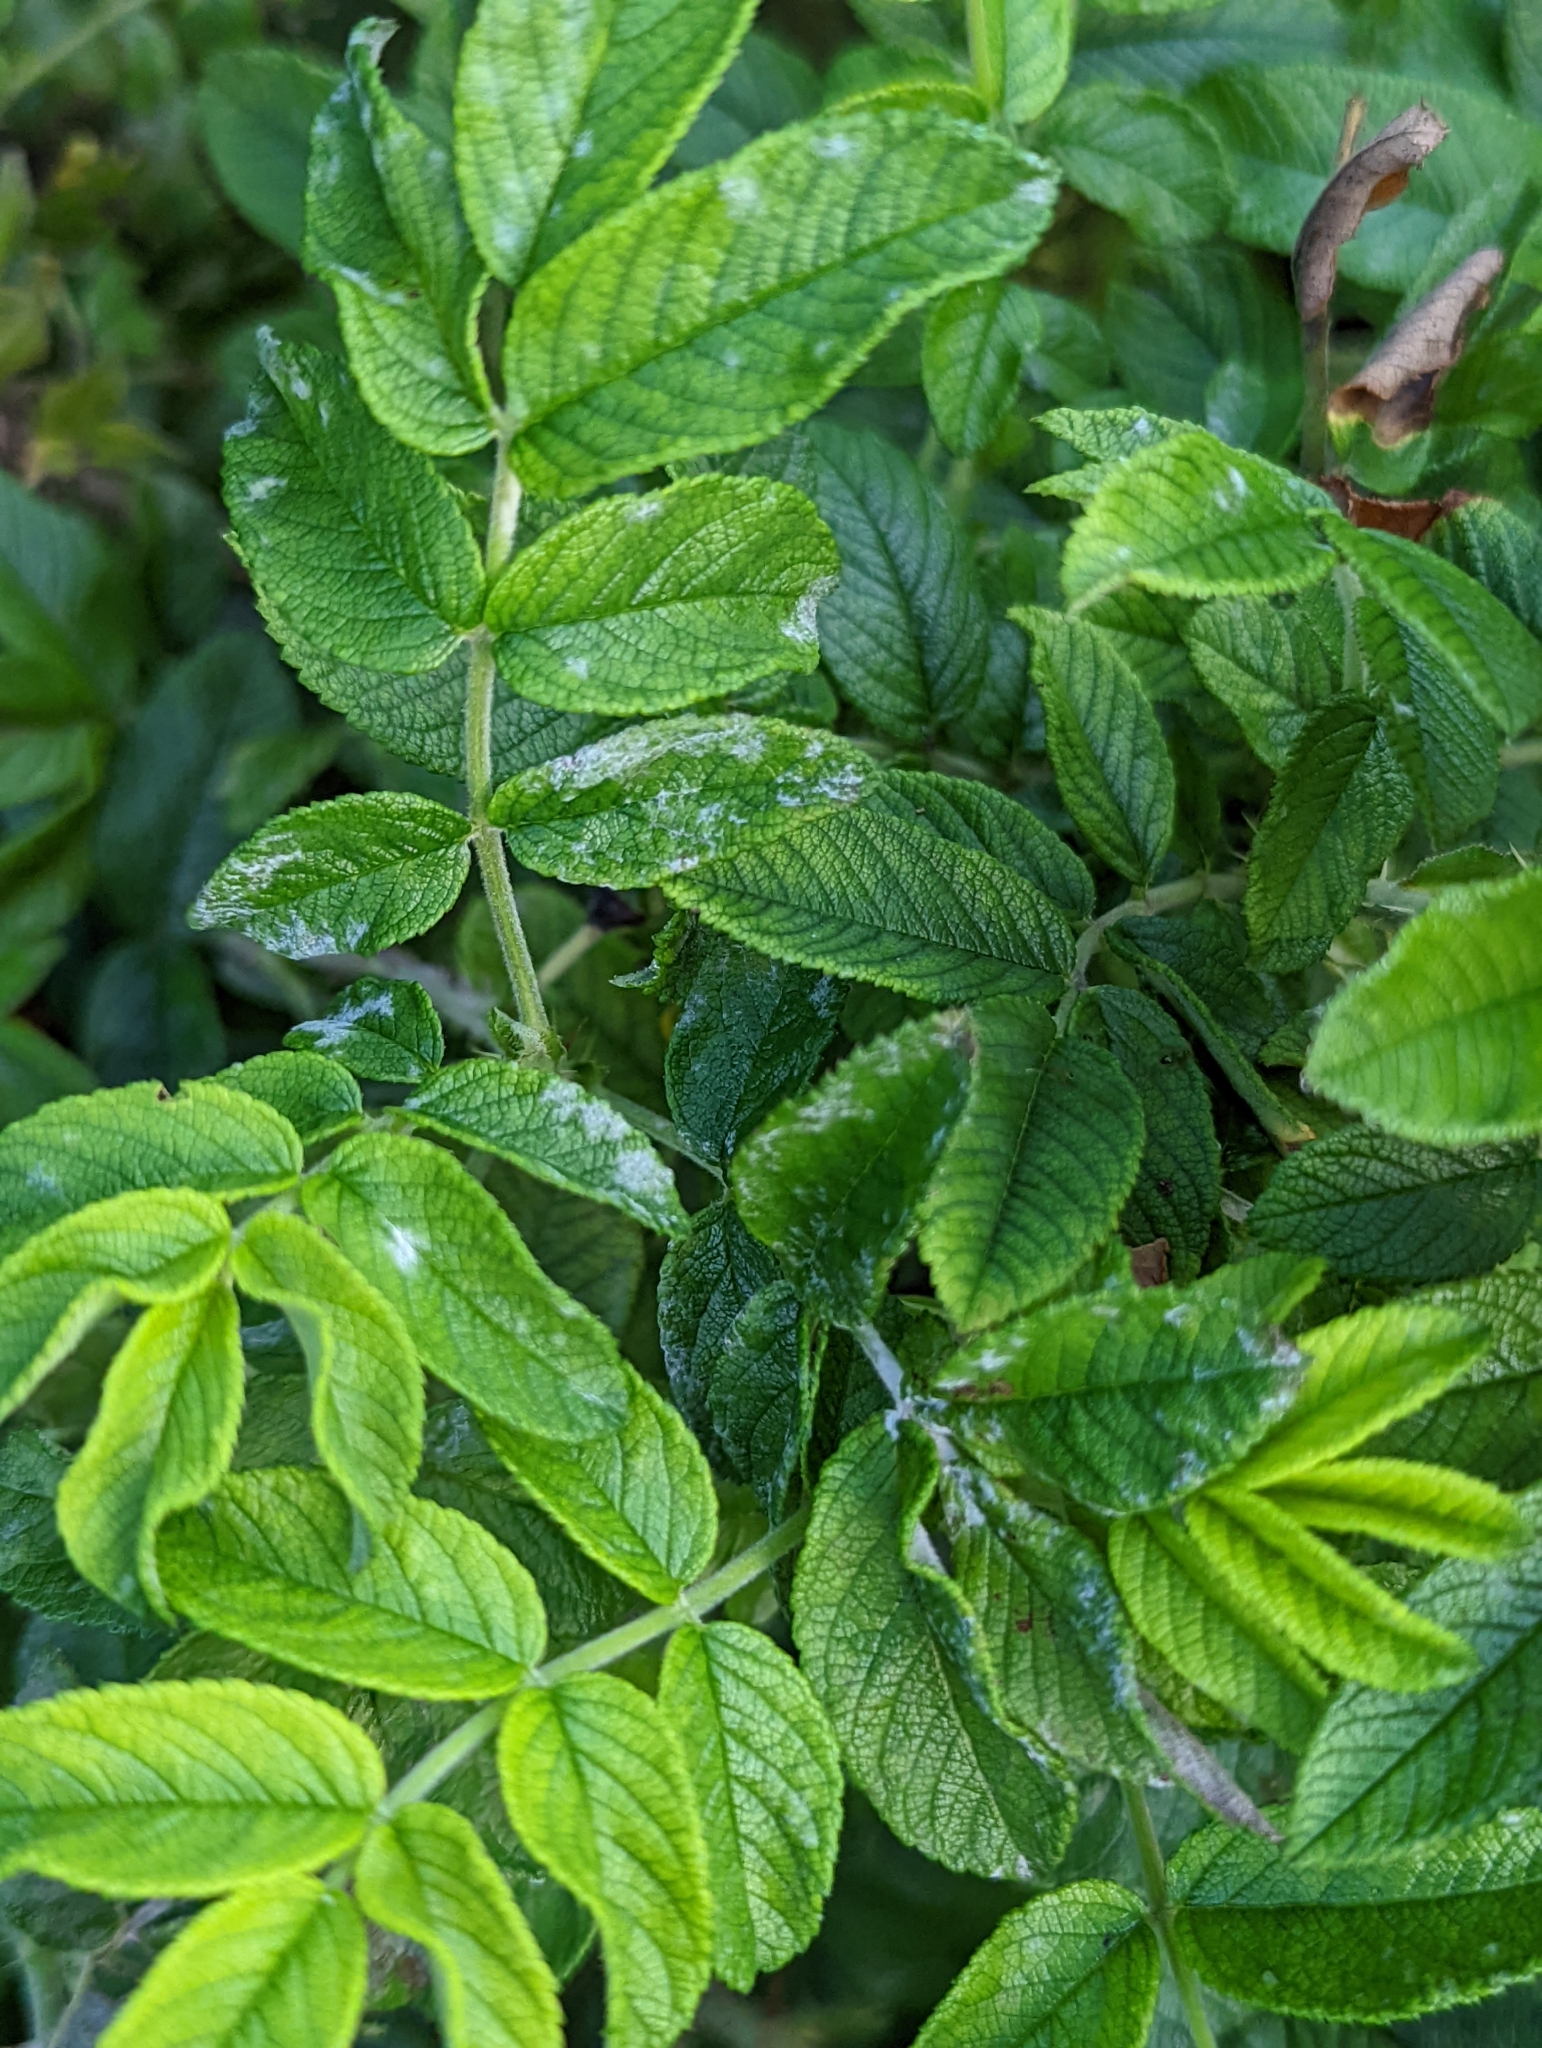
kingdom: Fungi
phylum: Ascomycota
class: Leotiomycetes
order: Helotiales
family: Erysiphaceae
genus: Podosphaera
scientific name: Podosphaera pannosa
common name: Rose mildew
